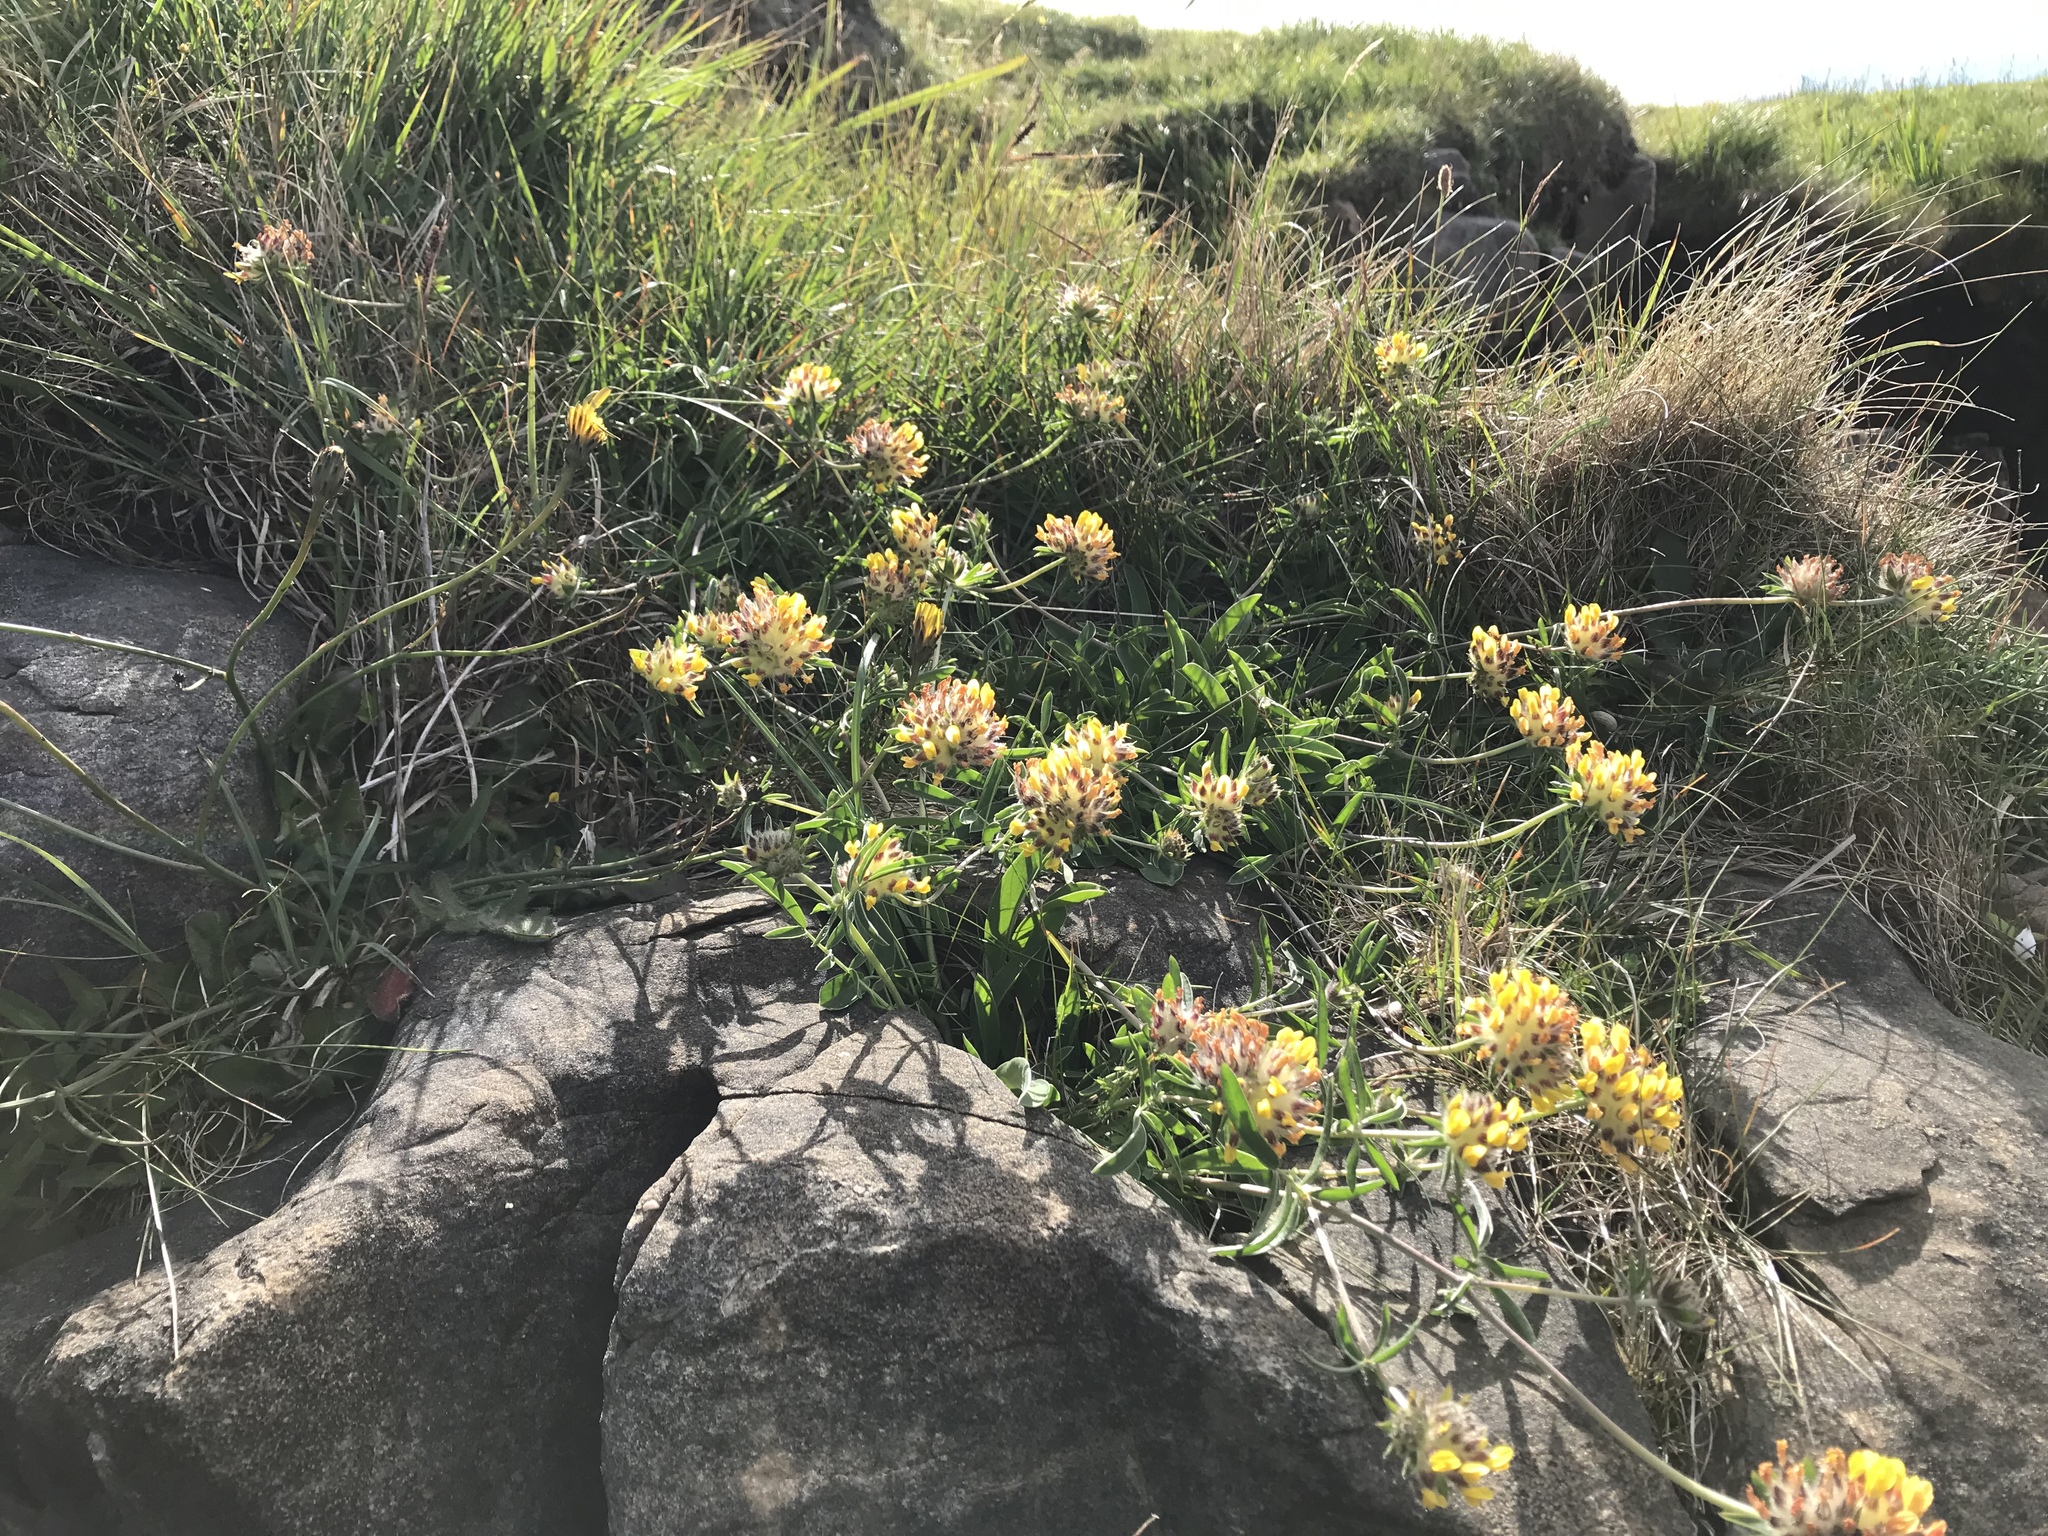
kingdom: Plantae
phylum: Tracheophyta
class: Magnoliopsida
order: Fabales
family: Fabaceae
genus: Anthyllis
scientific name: Anthyllis vulneraria
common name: Kidney vetch
